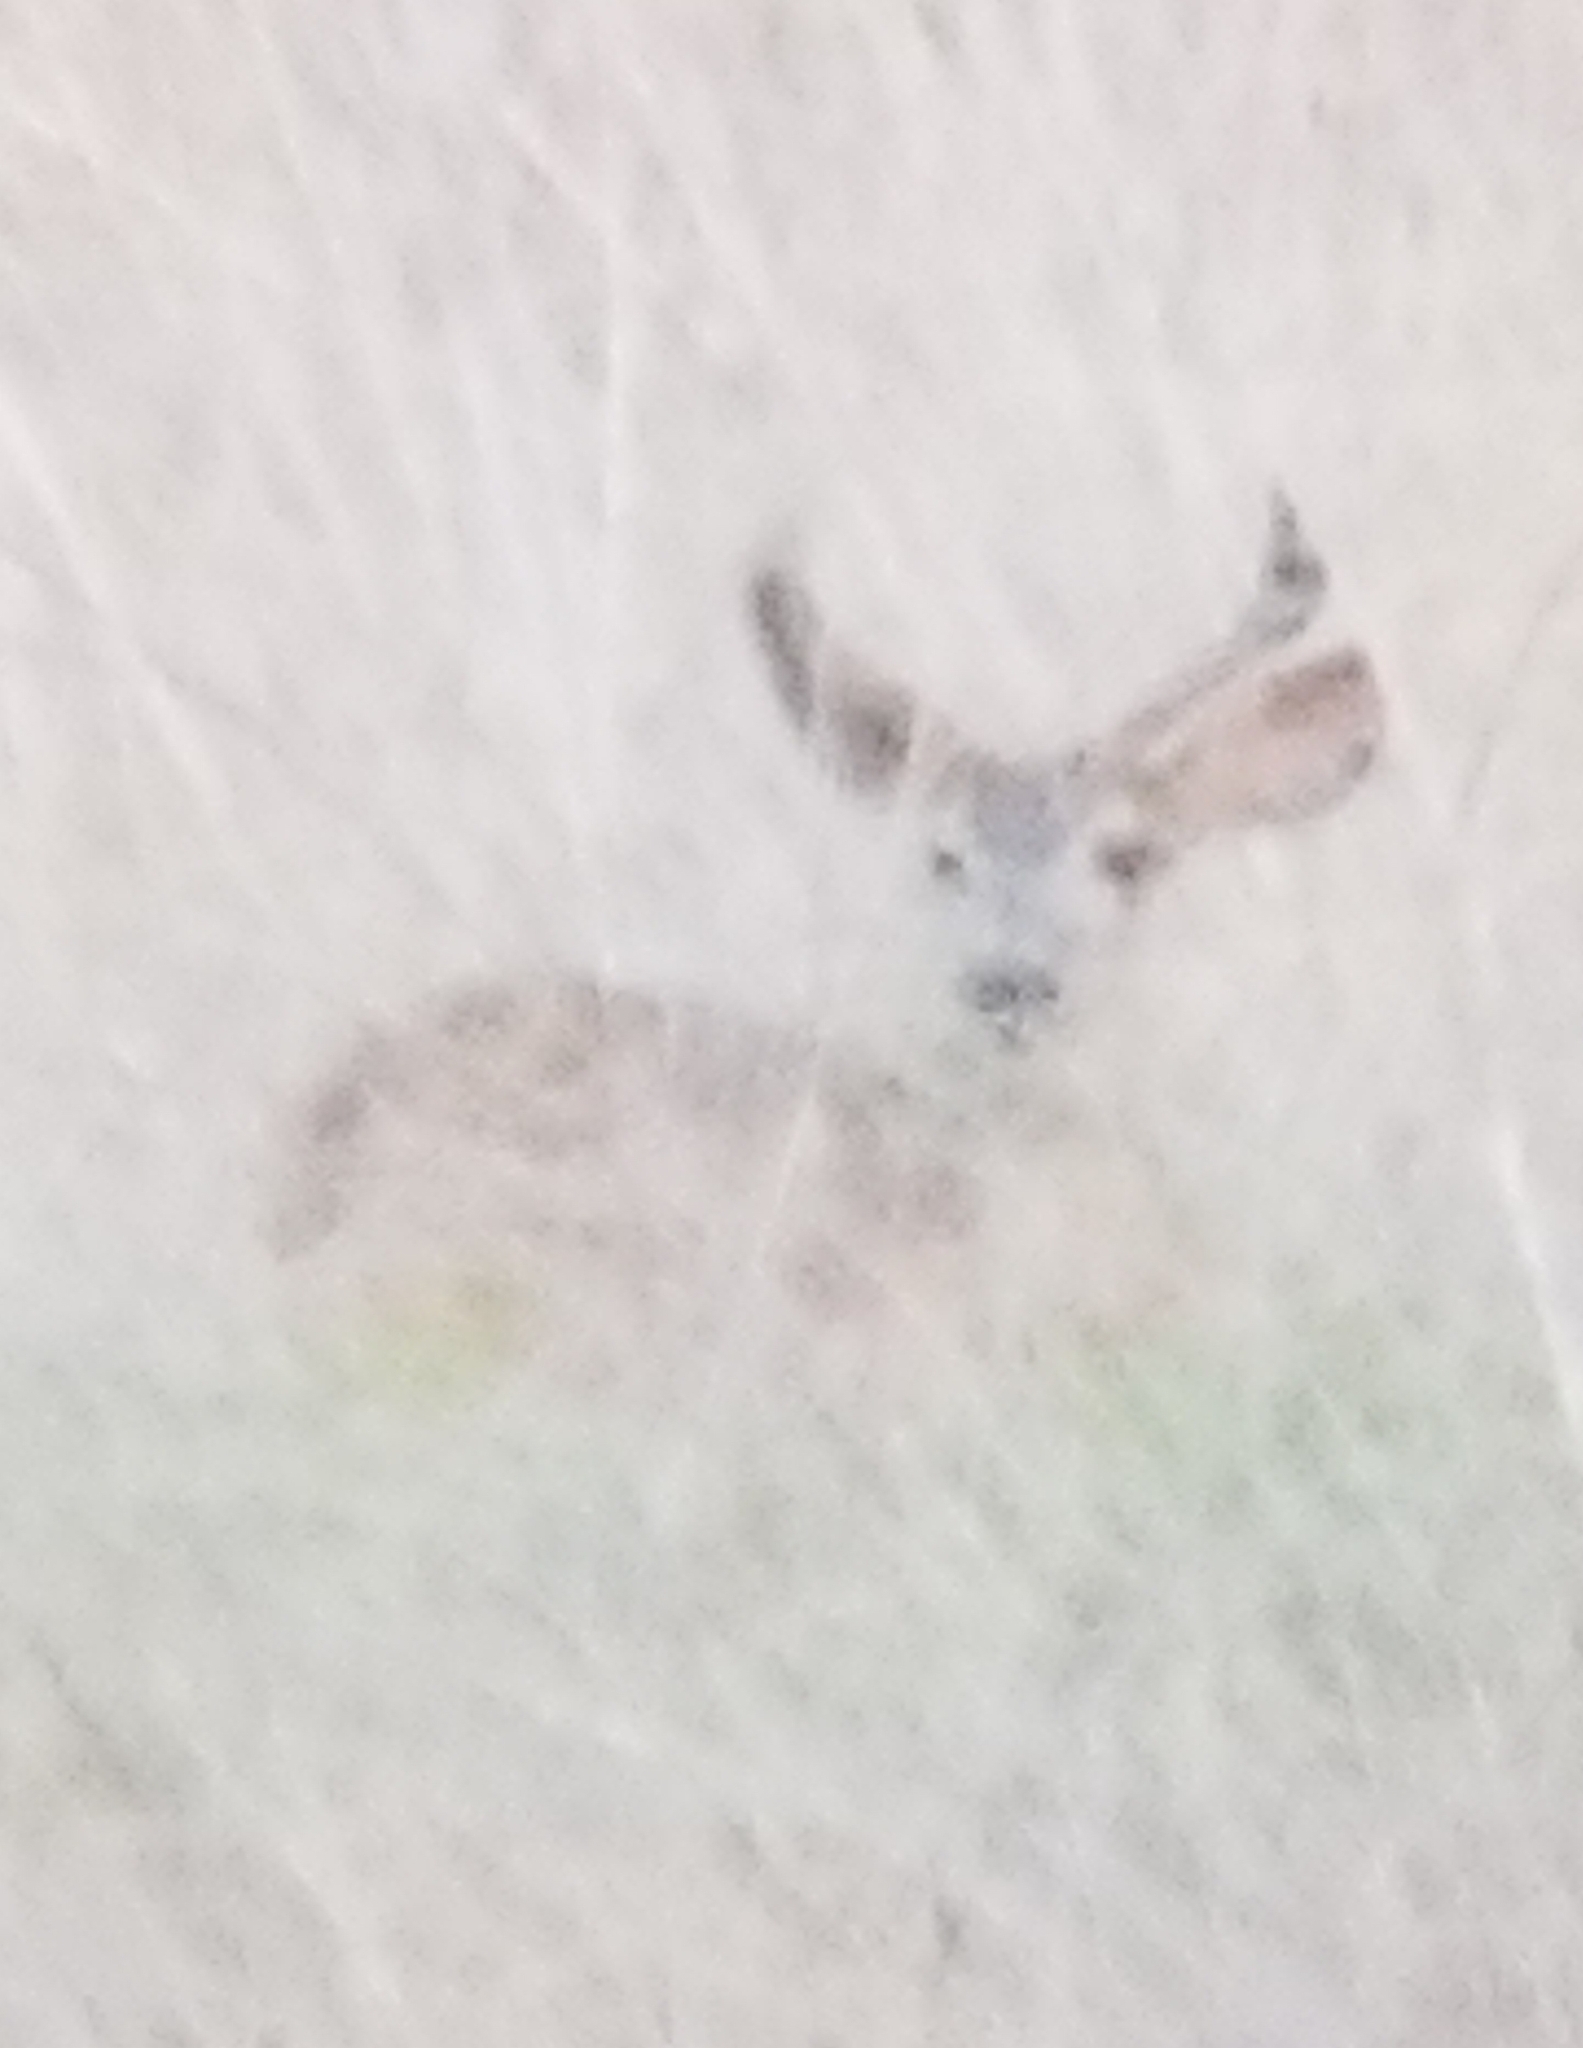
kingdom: Animalia
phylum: Chordata
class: Mammalia
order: Artiodactyla
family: Cervidae
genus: Odocoileus
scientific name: Odocoileus hemionus
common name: Mule deer
